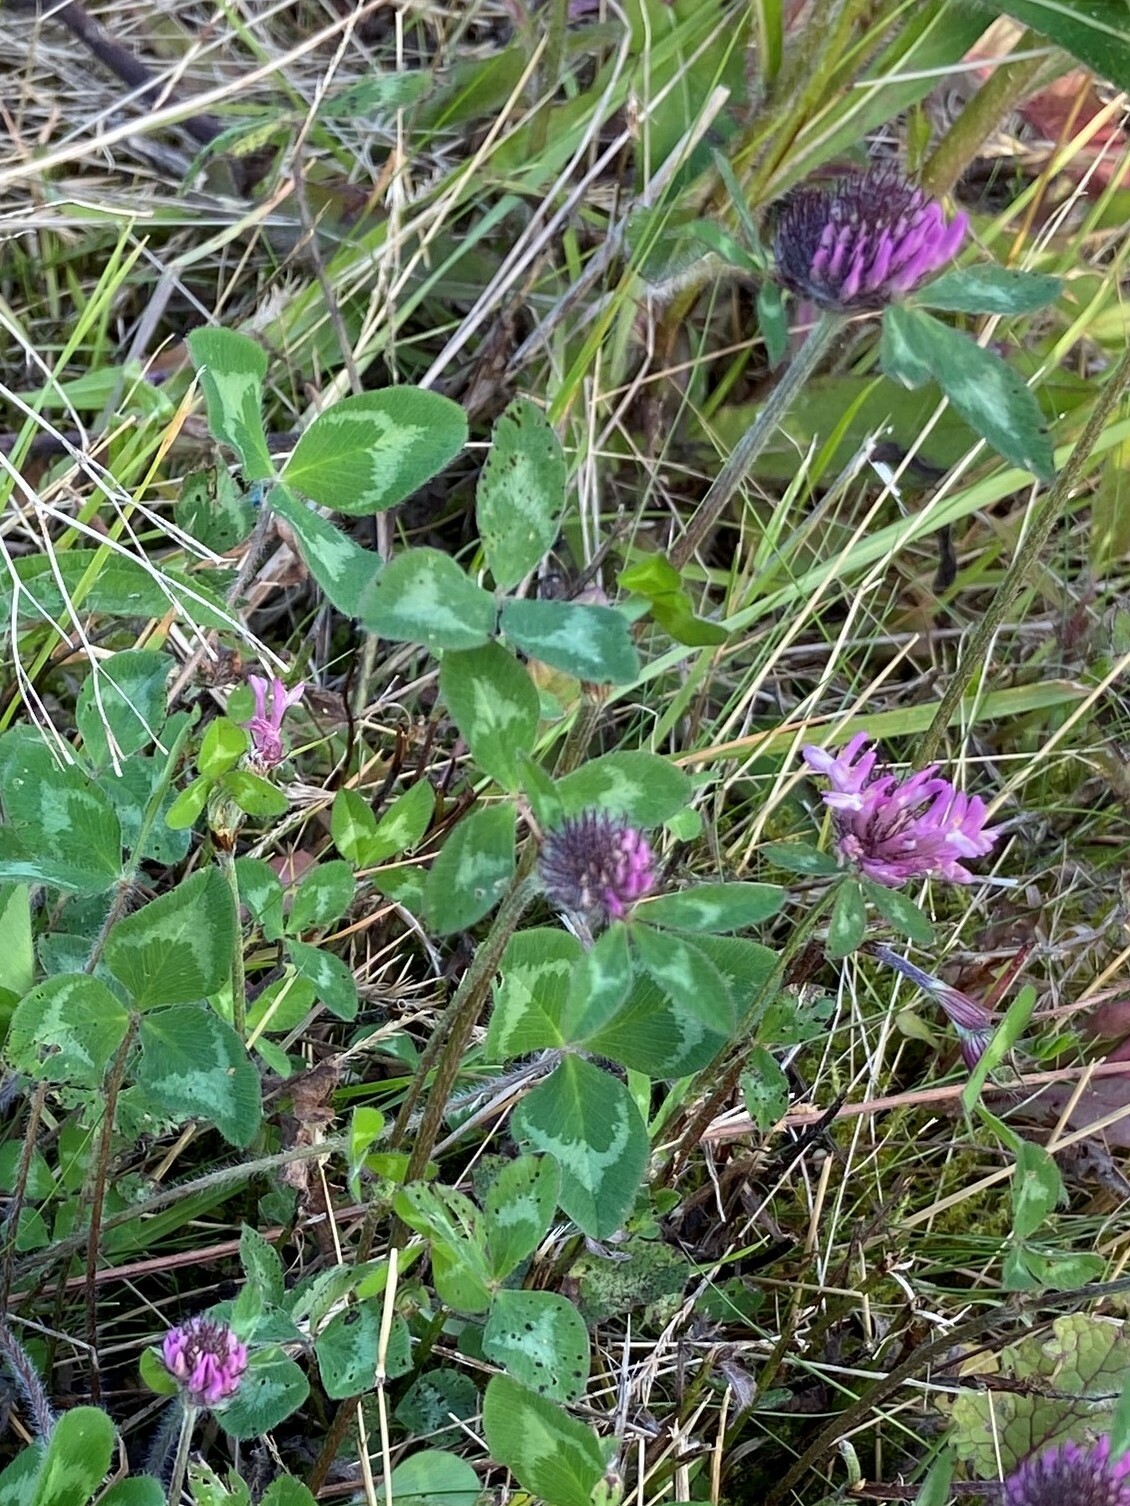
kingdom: Plantae
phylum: Tracheophyta
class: Magnoliopsida
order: Fabales
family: Fabaceae
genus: Trifolium
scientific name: Trifolium pratense
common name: Red clover
